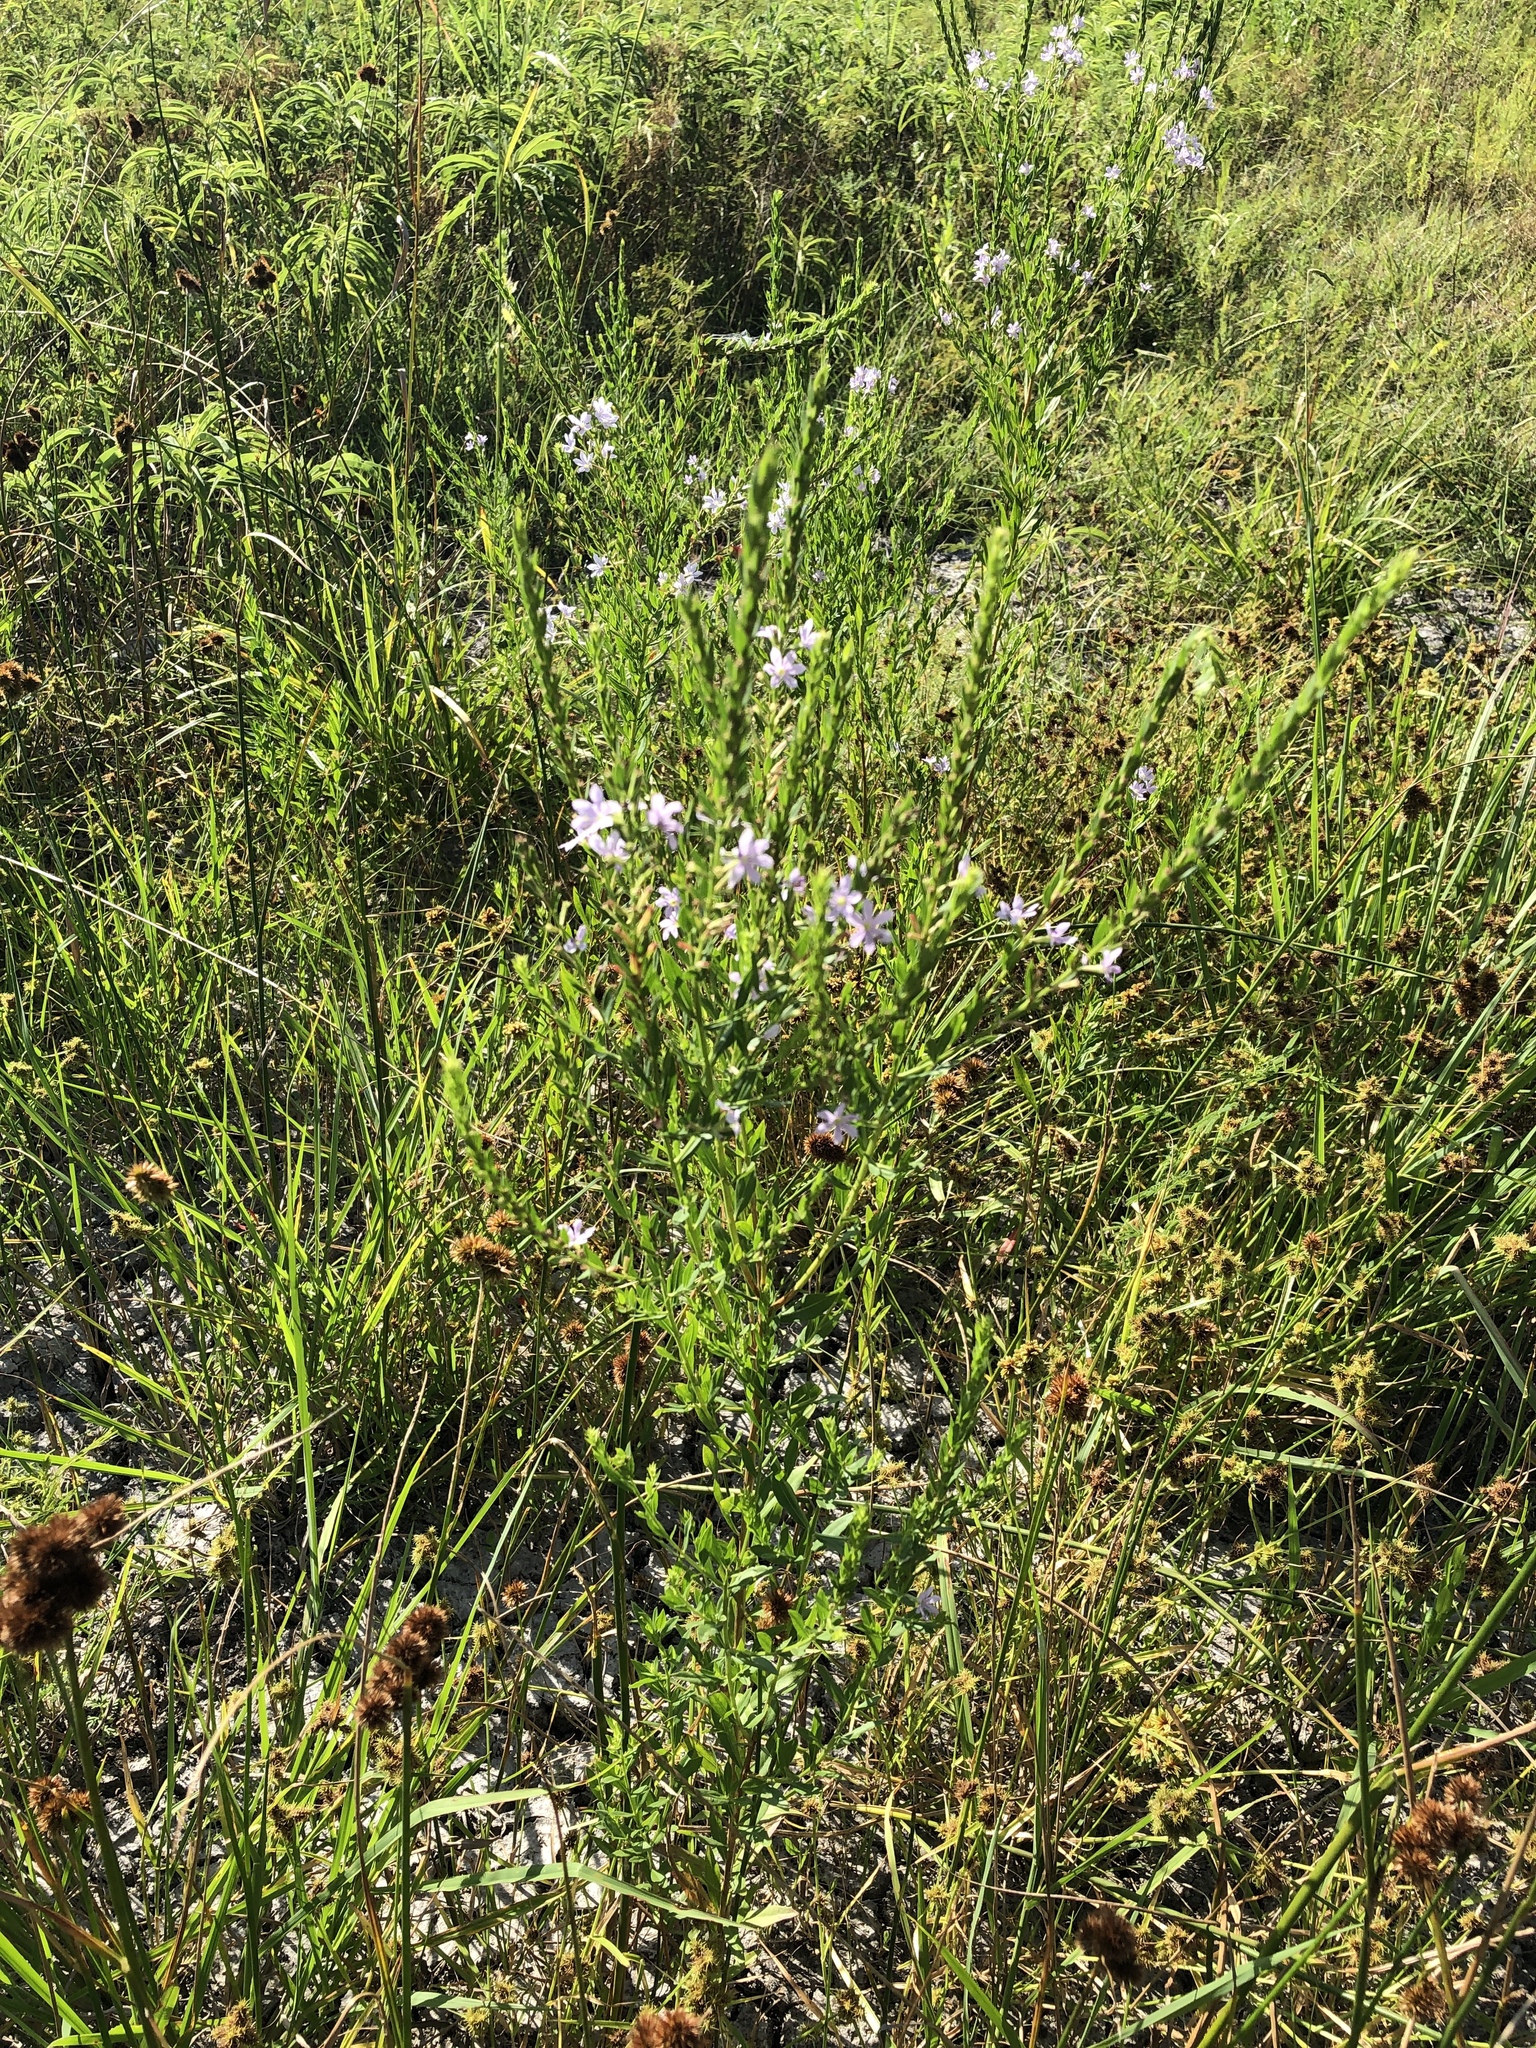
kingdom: Plantae
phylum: Tracheophyta
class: Magnoliopsida
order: Myrtales
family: Lythraceae
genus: Lythrum
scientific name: Lythrum alatum
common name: Winged loosestrife
